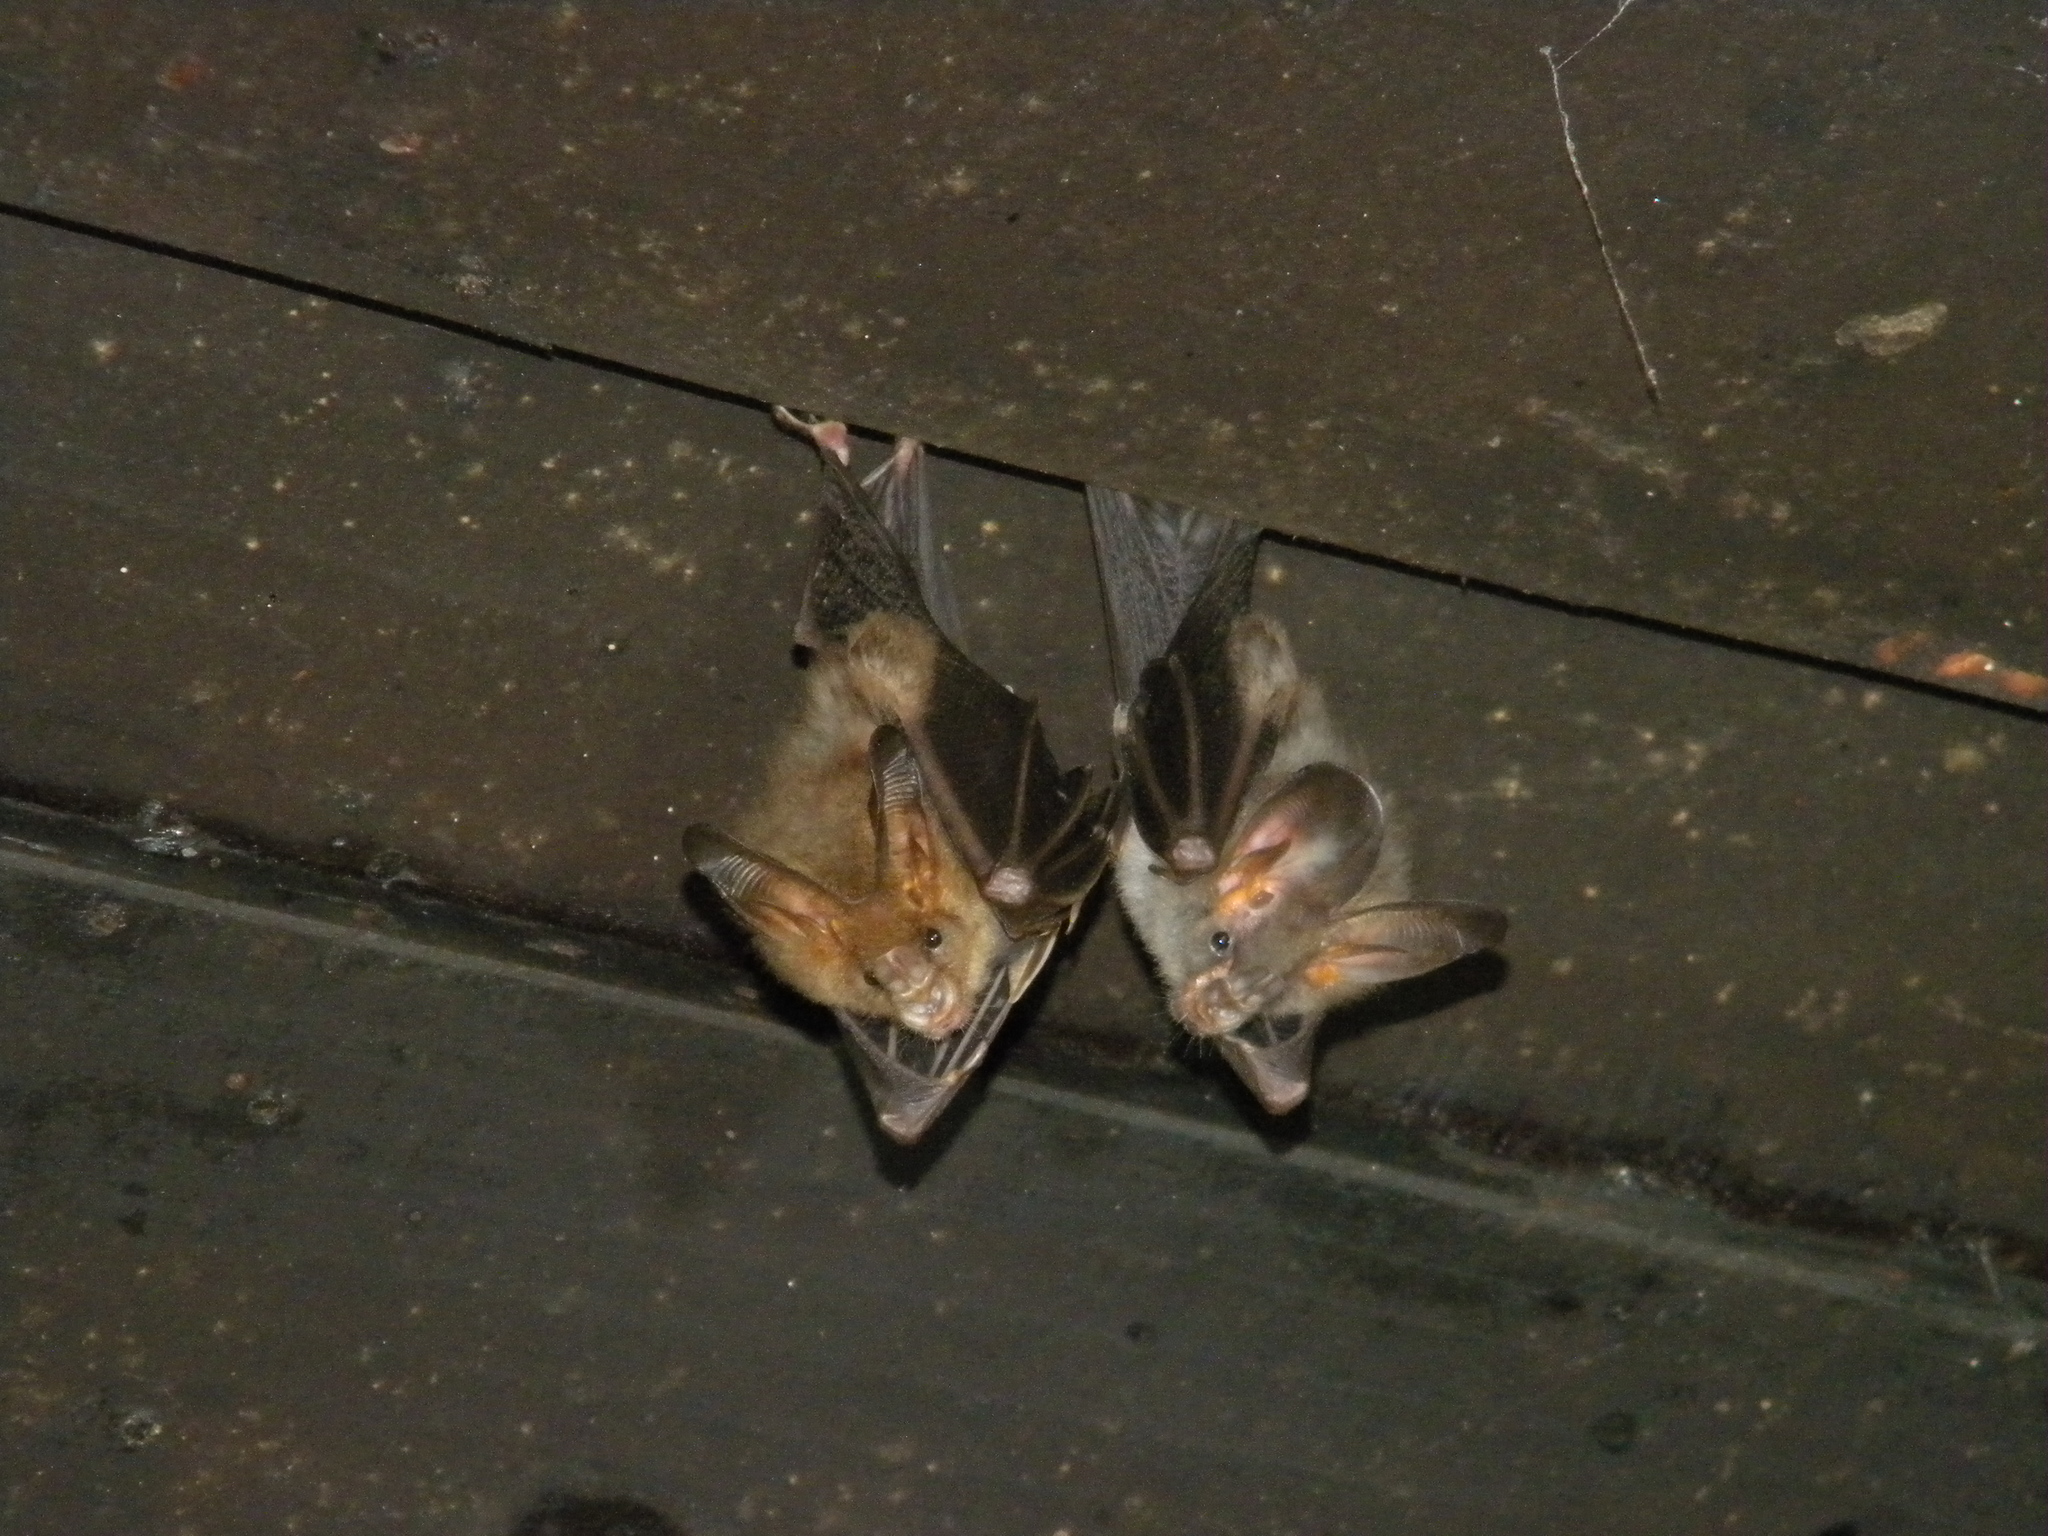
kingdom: Animalia
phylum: Chordata
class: Mammalia
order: Chiroptera
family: Megadermatidae
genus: Megaderma
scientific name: Megaderma spasma
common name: Lesser false vampire bat
